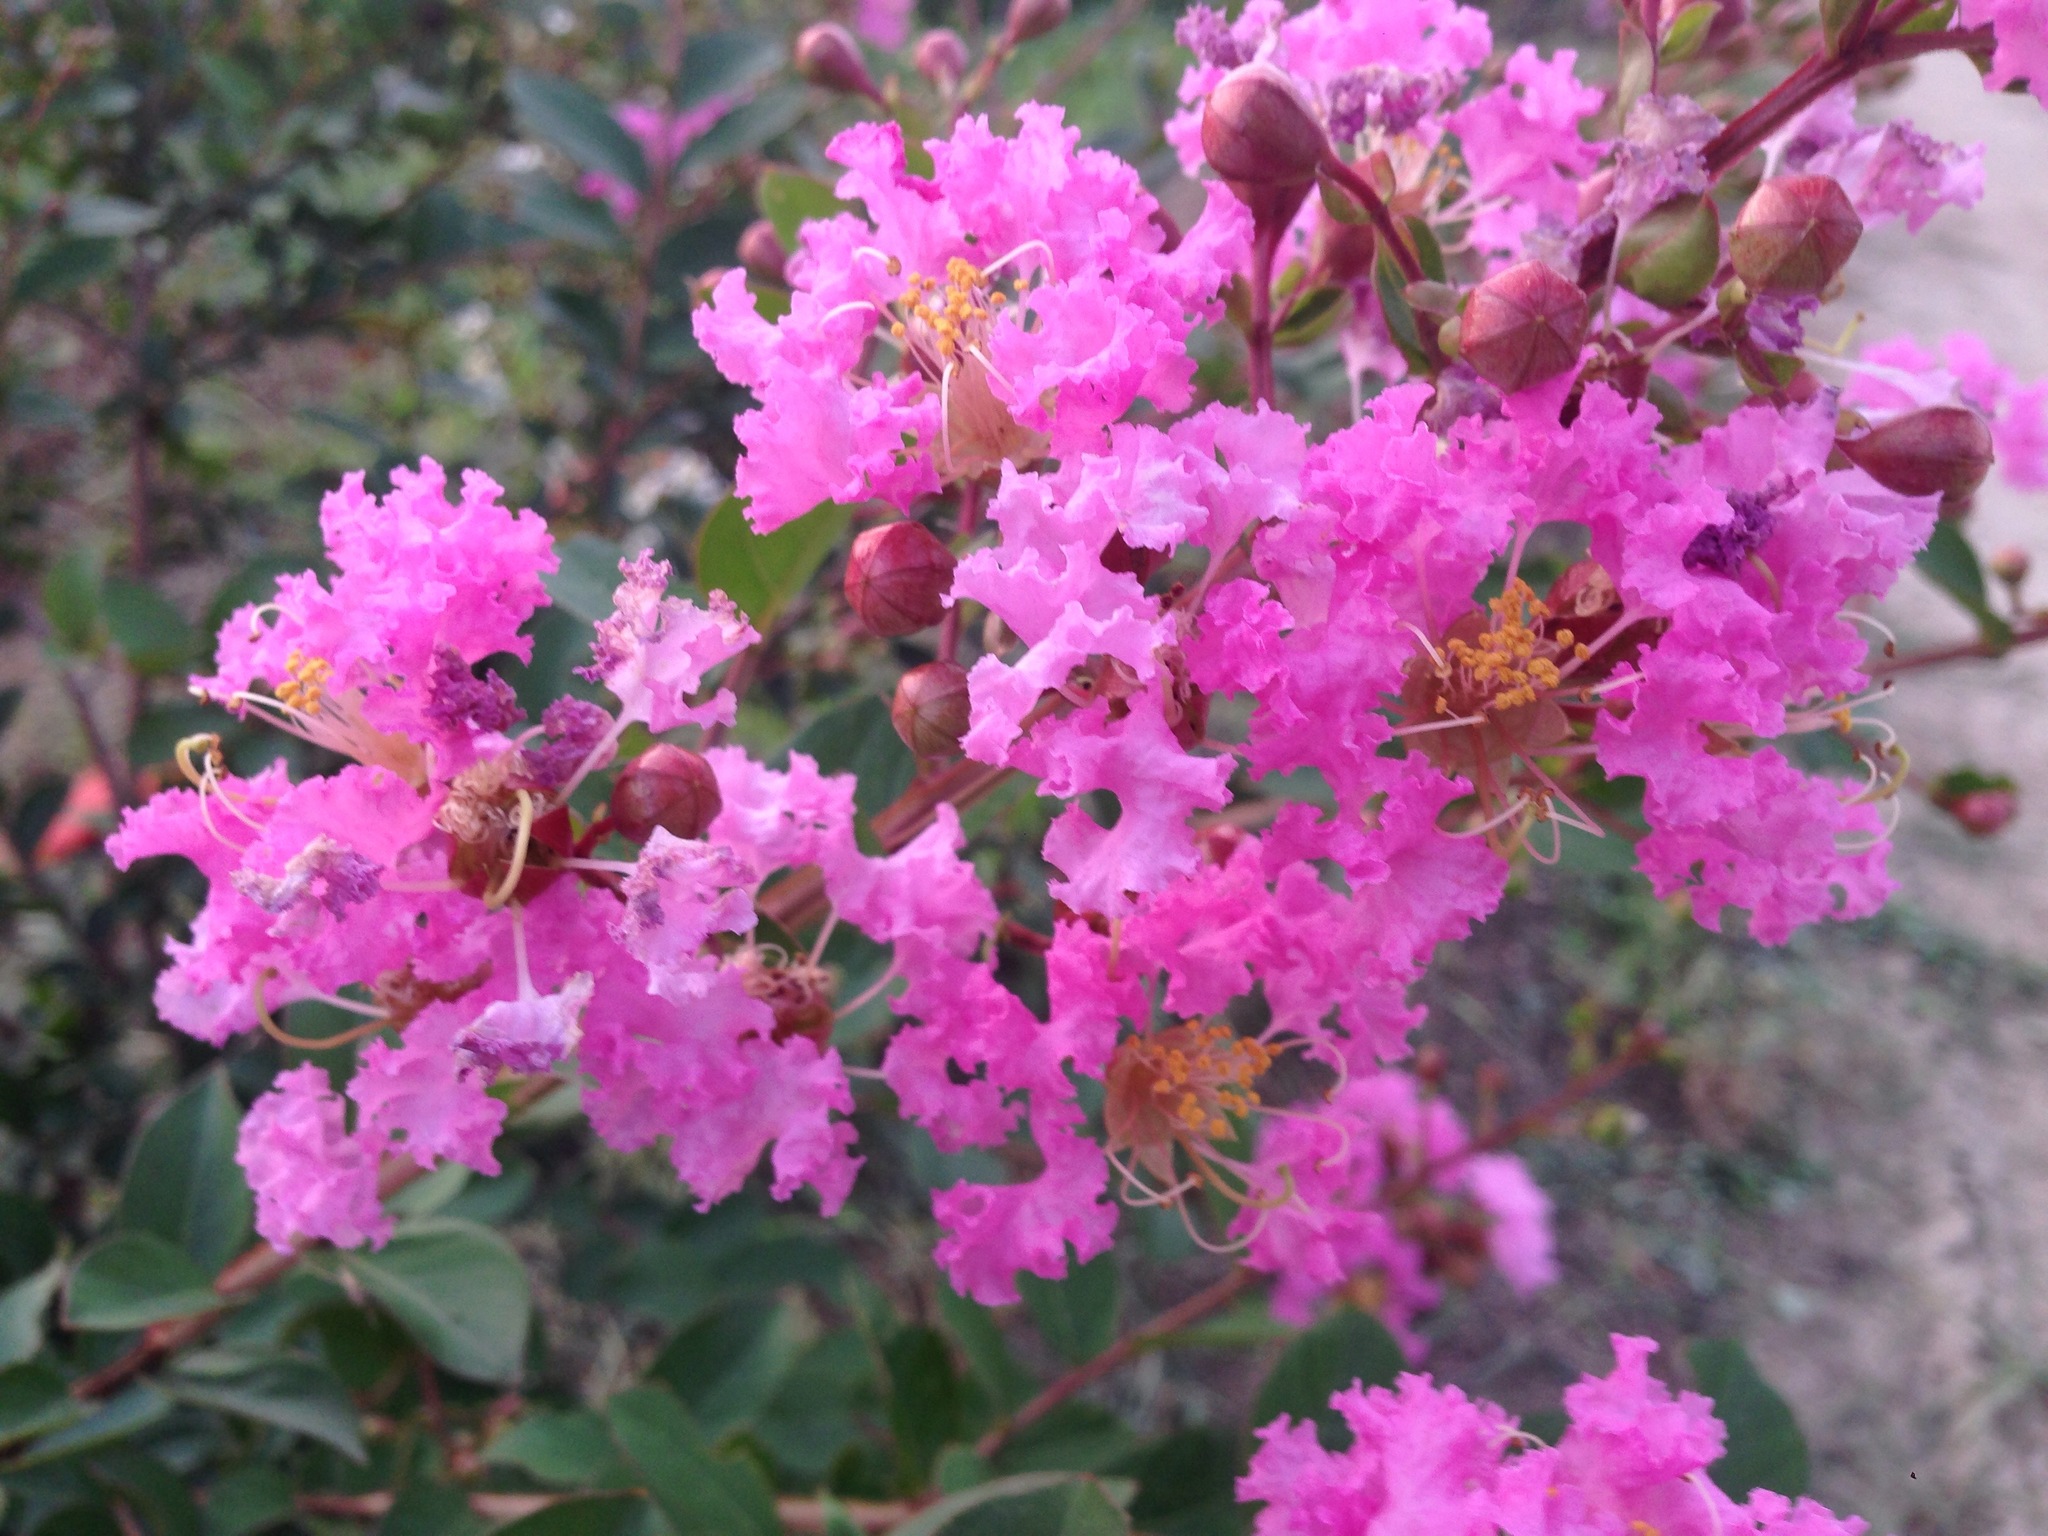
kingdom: Plantae
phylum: Tracheophyta
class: Magnoliopsida
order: Myrtales
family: Lythraceae
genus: Lagerstroemia
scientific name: Lagerstroemia indica
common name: Crape-myrtle
